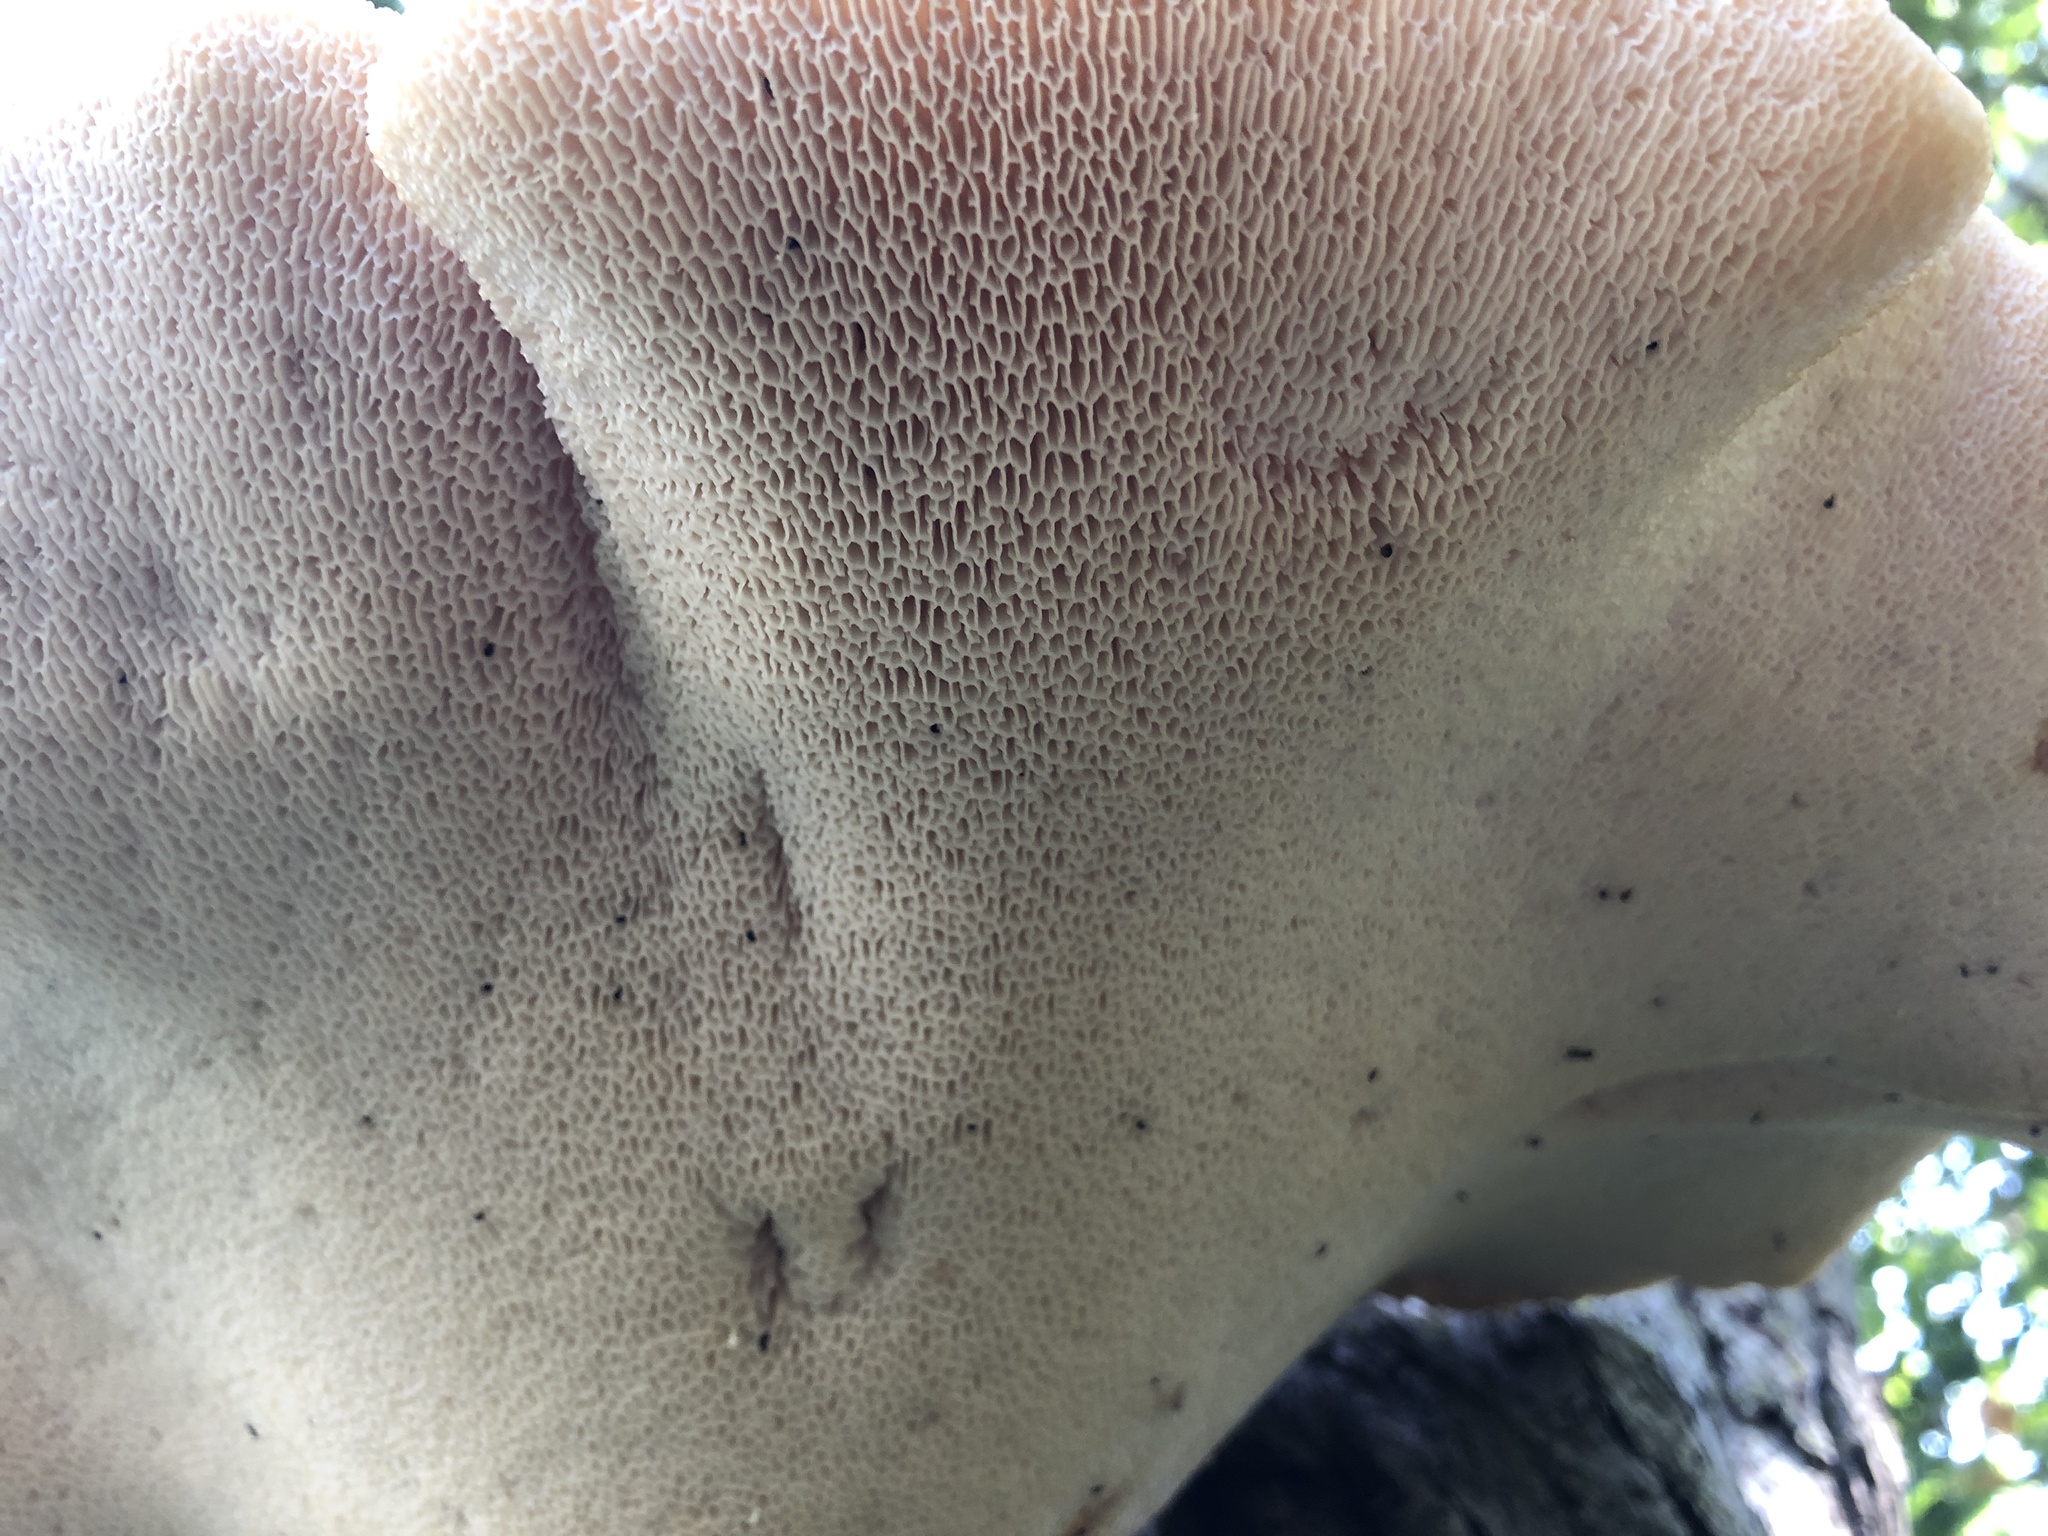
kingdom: Fungi
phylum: Basidiomycota
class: Agaricomycetes
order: Polyporales
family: Polyporaceae
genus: Cerioporus
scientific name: Cerioporus squamosus
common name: Dryad's saddle
